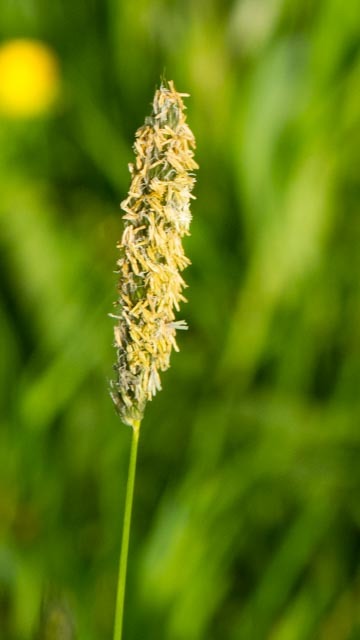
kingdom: Plantae
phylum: Tracheophyta
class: Liliopsida
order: Poales
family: Poaceae
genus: Alopecurus
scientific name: Alopecurus pratensis
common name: Meadow foxtail
